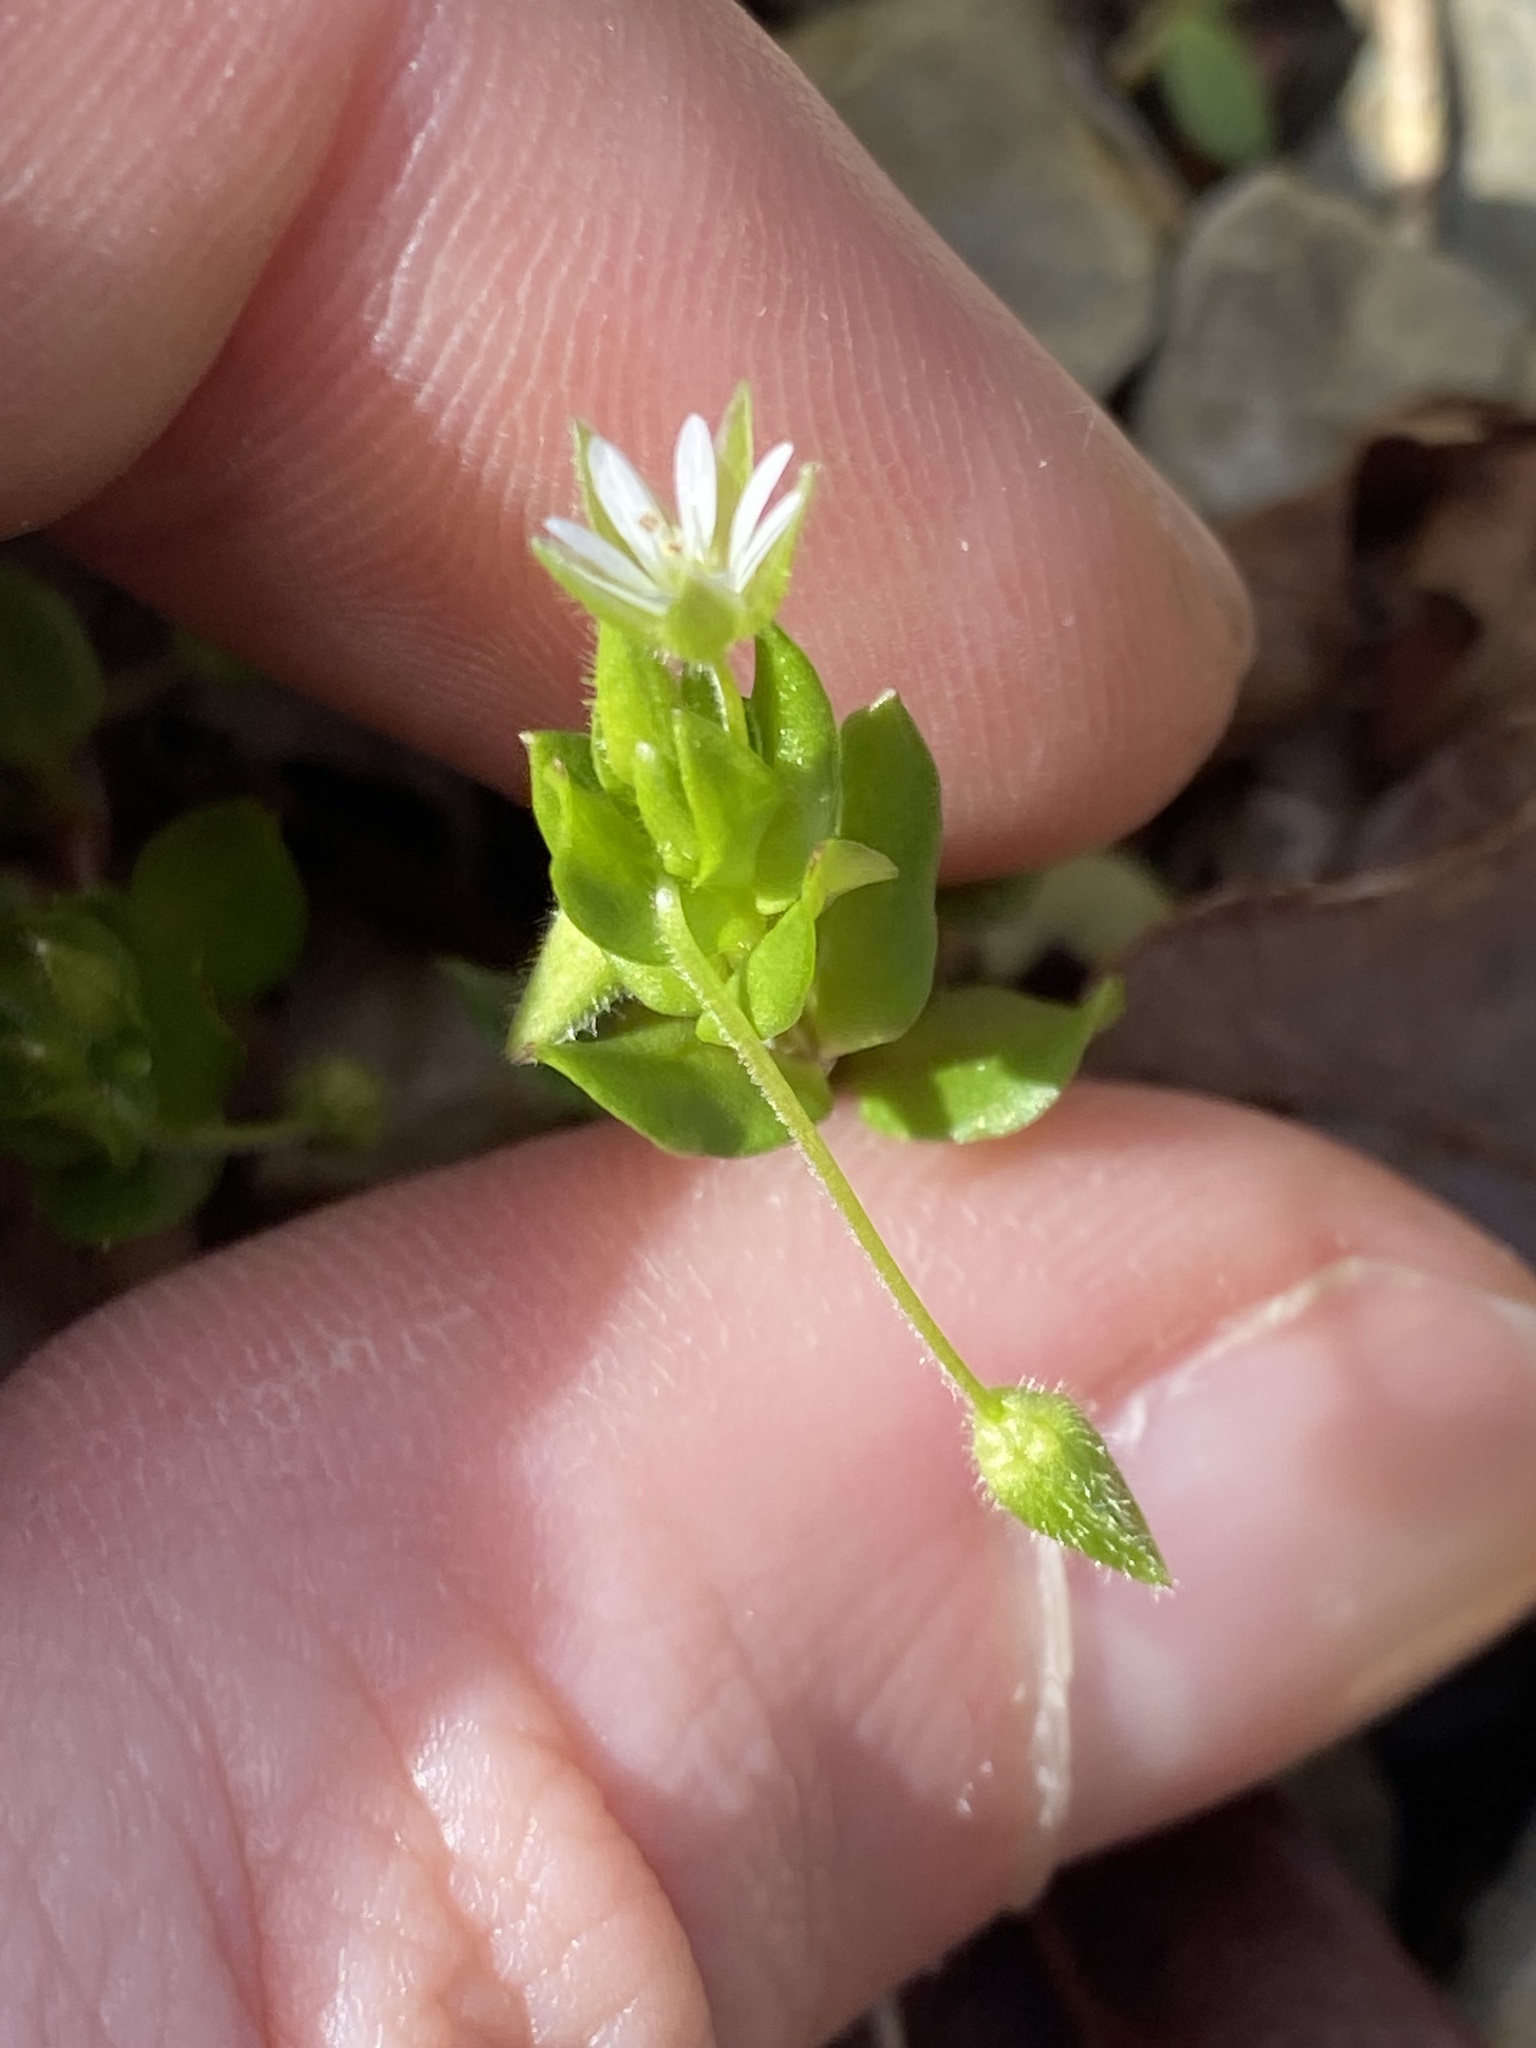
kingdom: Plantae
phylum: Tracheophyta
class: Magnoliopsida
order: Caryophyllales
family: Caryophyllaceae
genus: Stellaria
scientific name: Stellaria media
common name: Common chickweed
